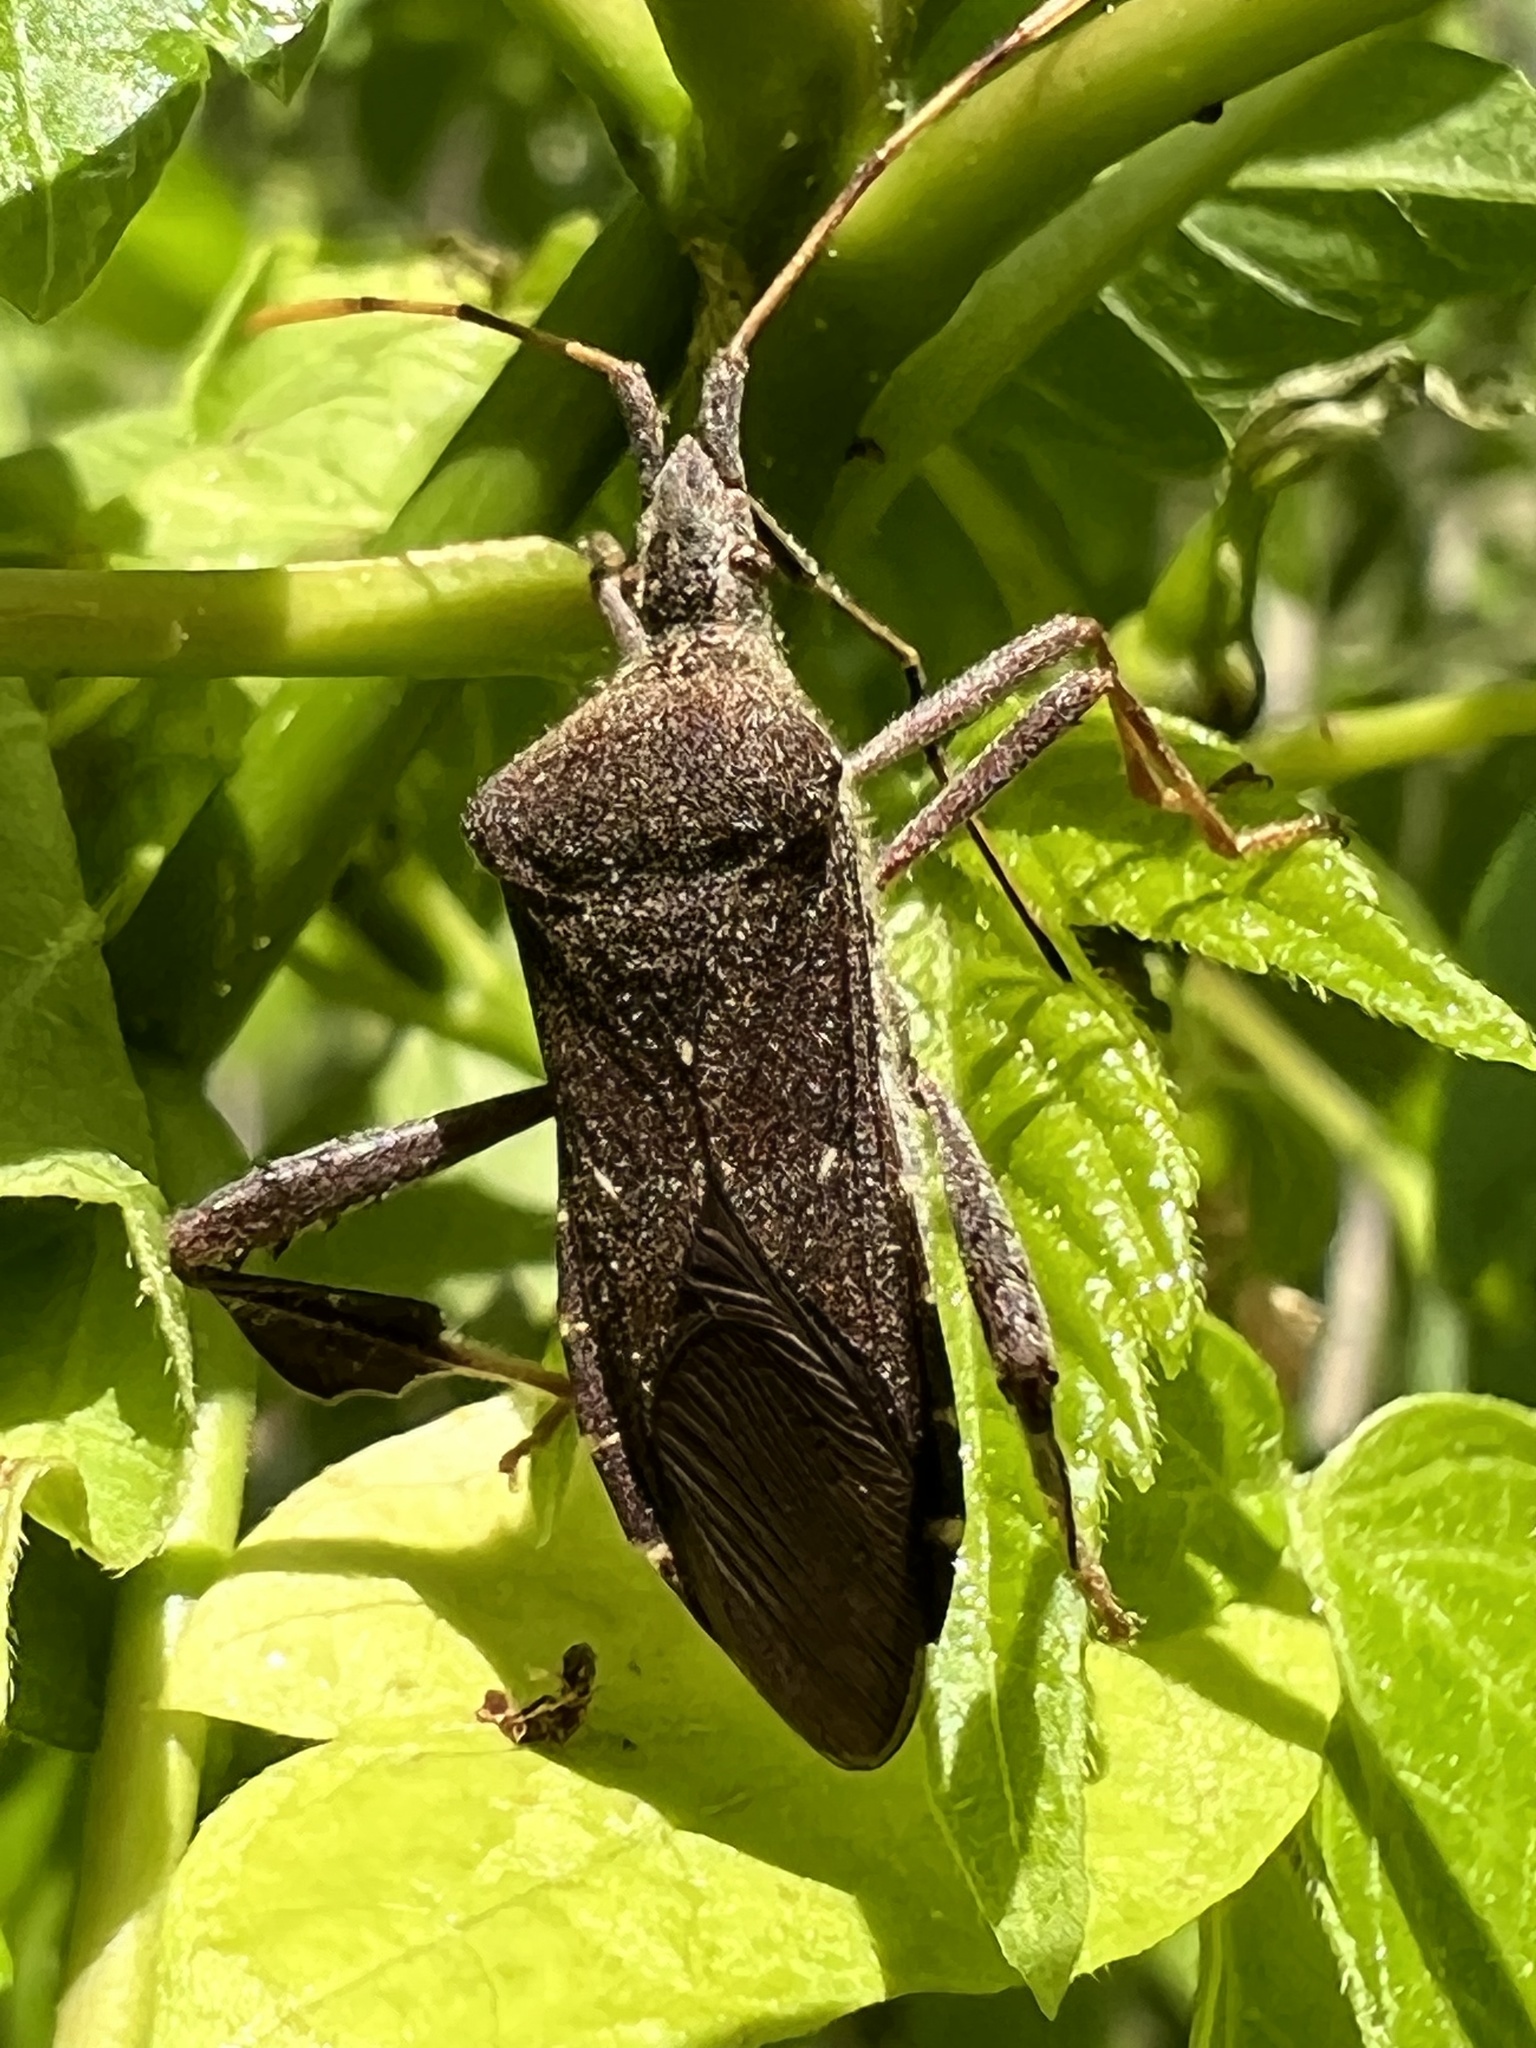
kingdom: Animalia
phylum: Arthropoda
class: Insecta
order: Hemiptera
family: Coreidae
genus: Leptoglossus
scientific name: Leptoglossus oppositus
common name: Northern leaf-footed bug
